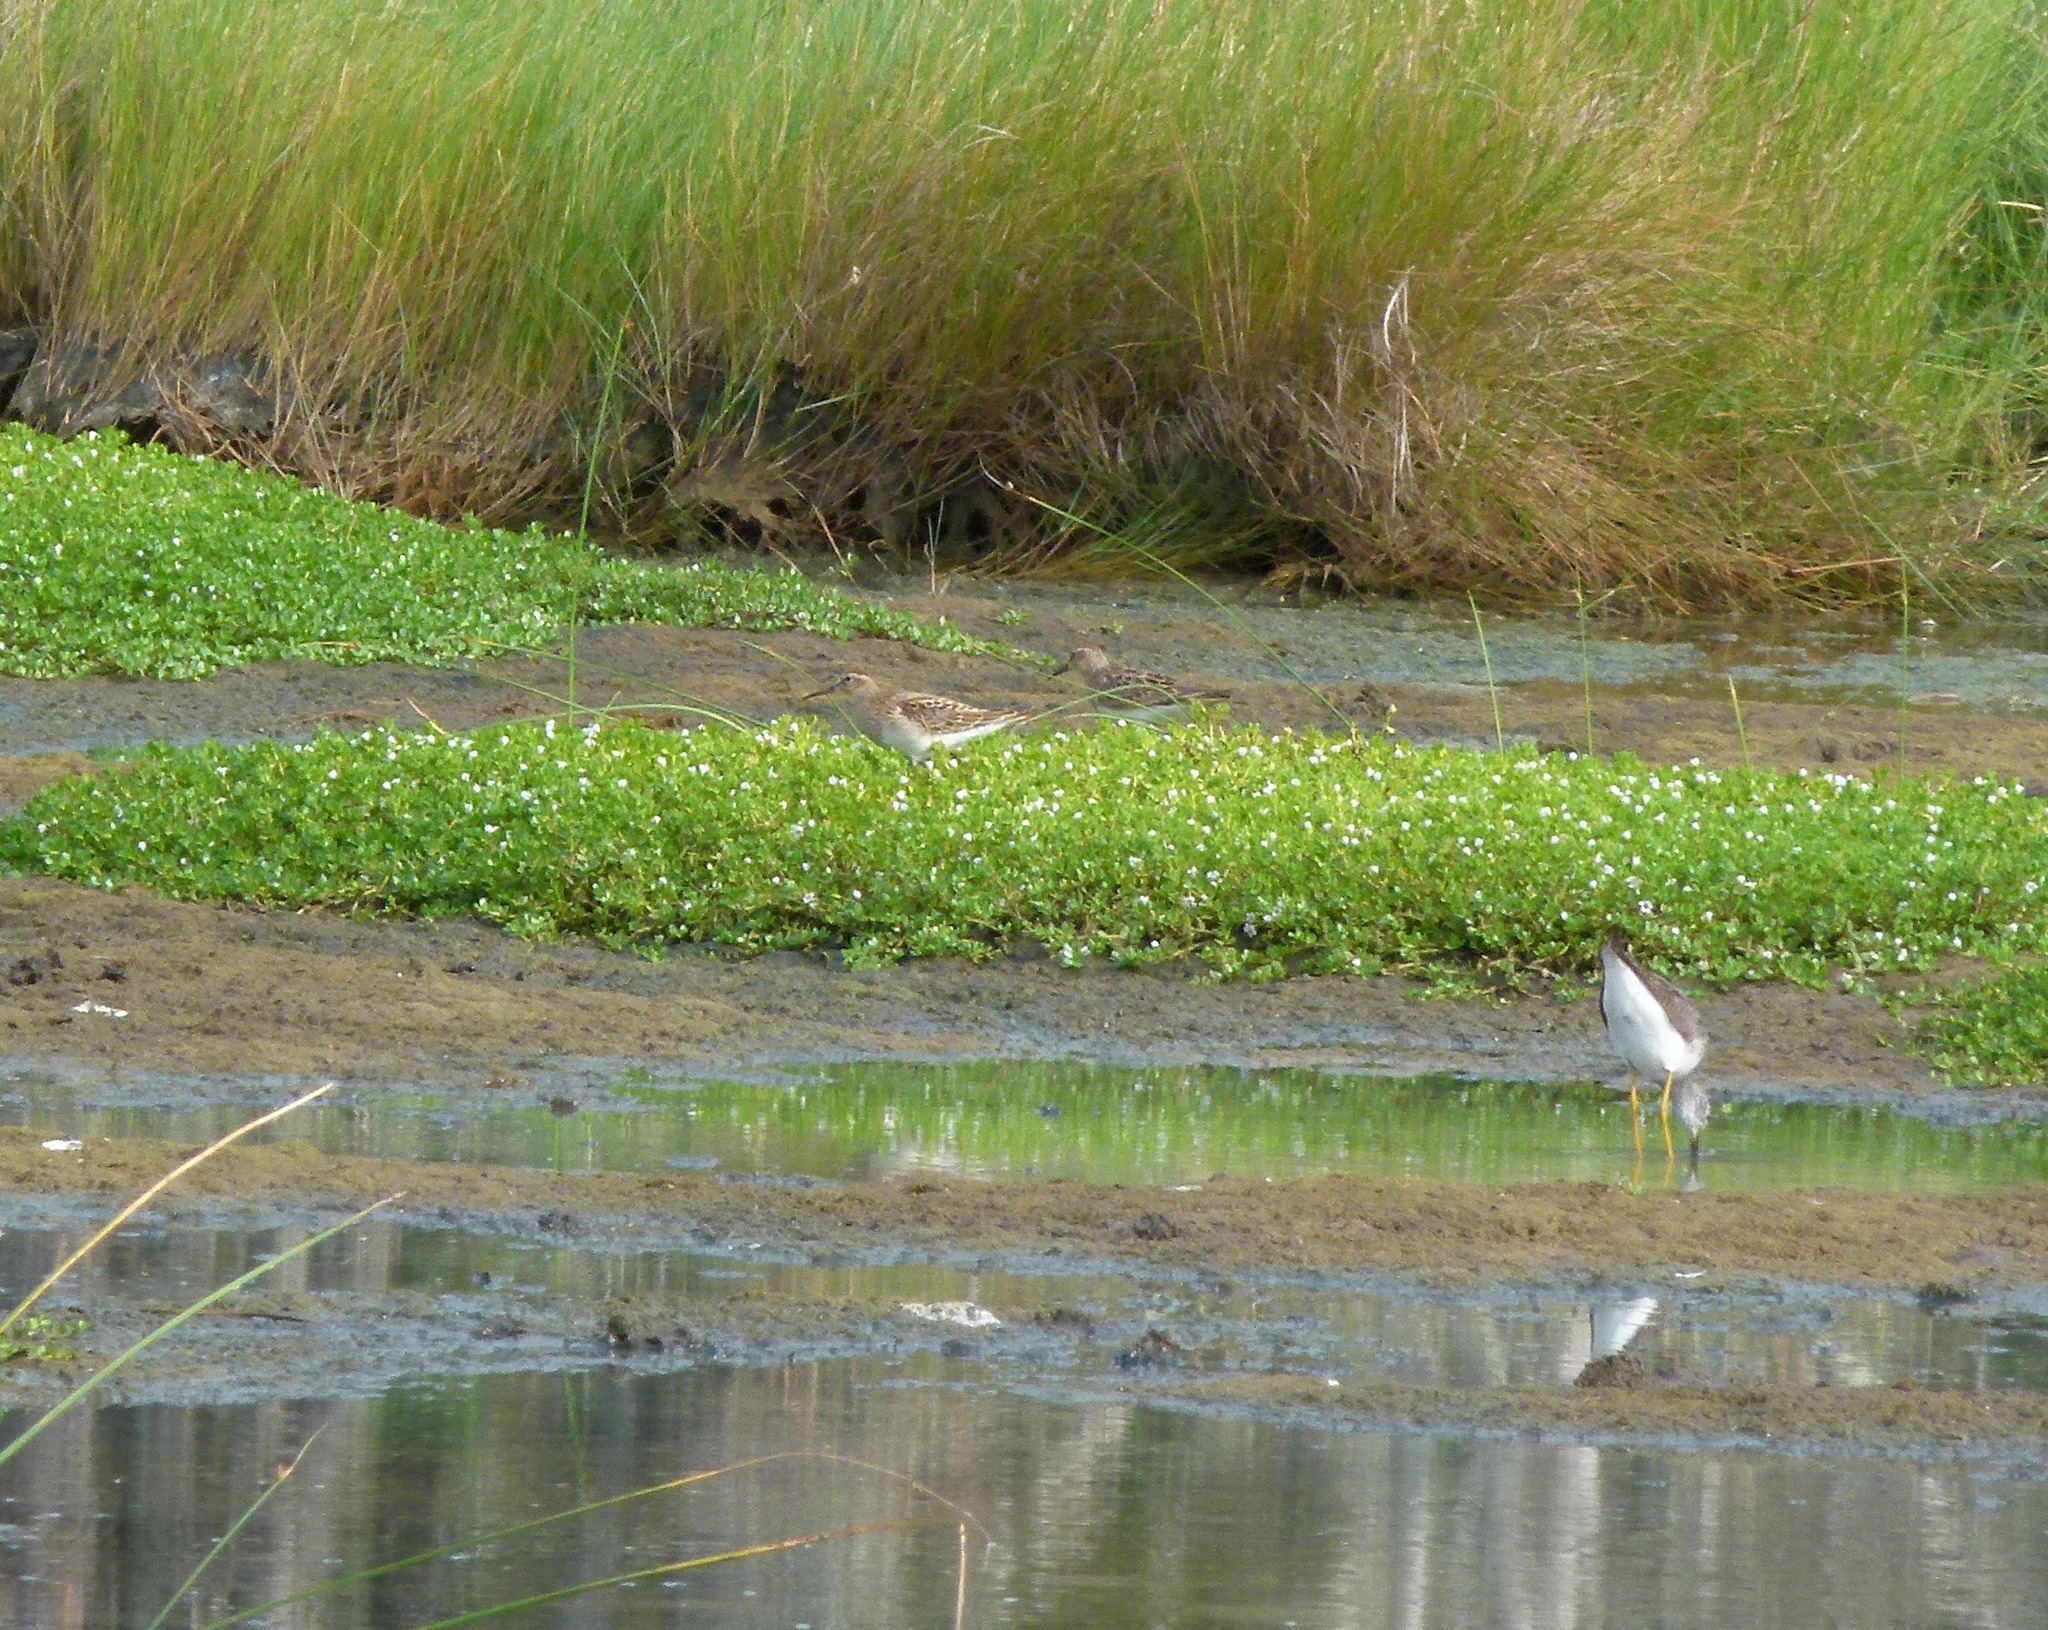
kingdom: Animalia
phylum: Chordata
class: Aves
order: Charadriiformes
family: Scolopacidae
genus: Calidris
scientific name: Calidris melanotos
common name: Pectoral sandpiper
